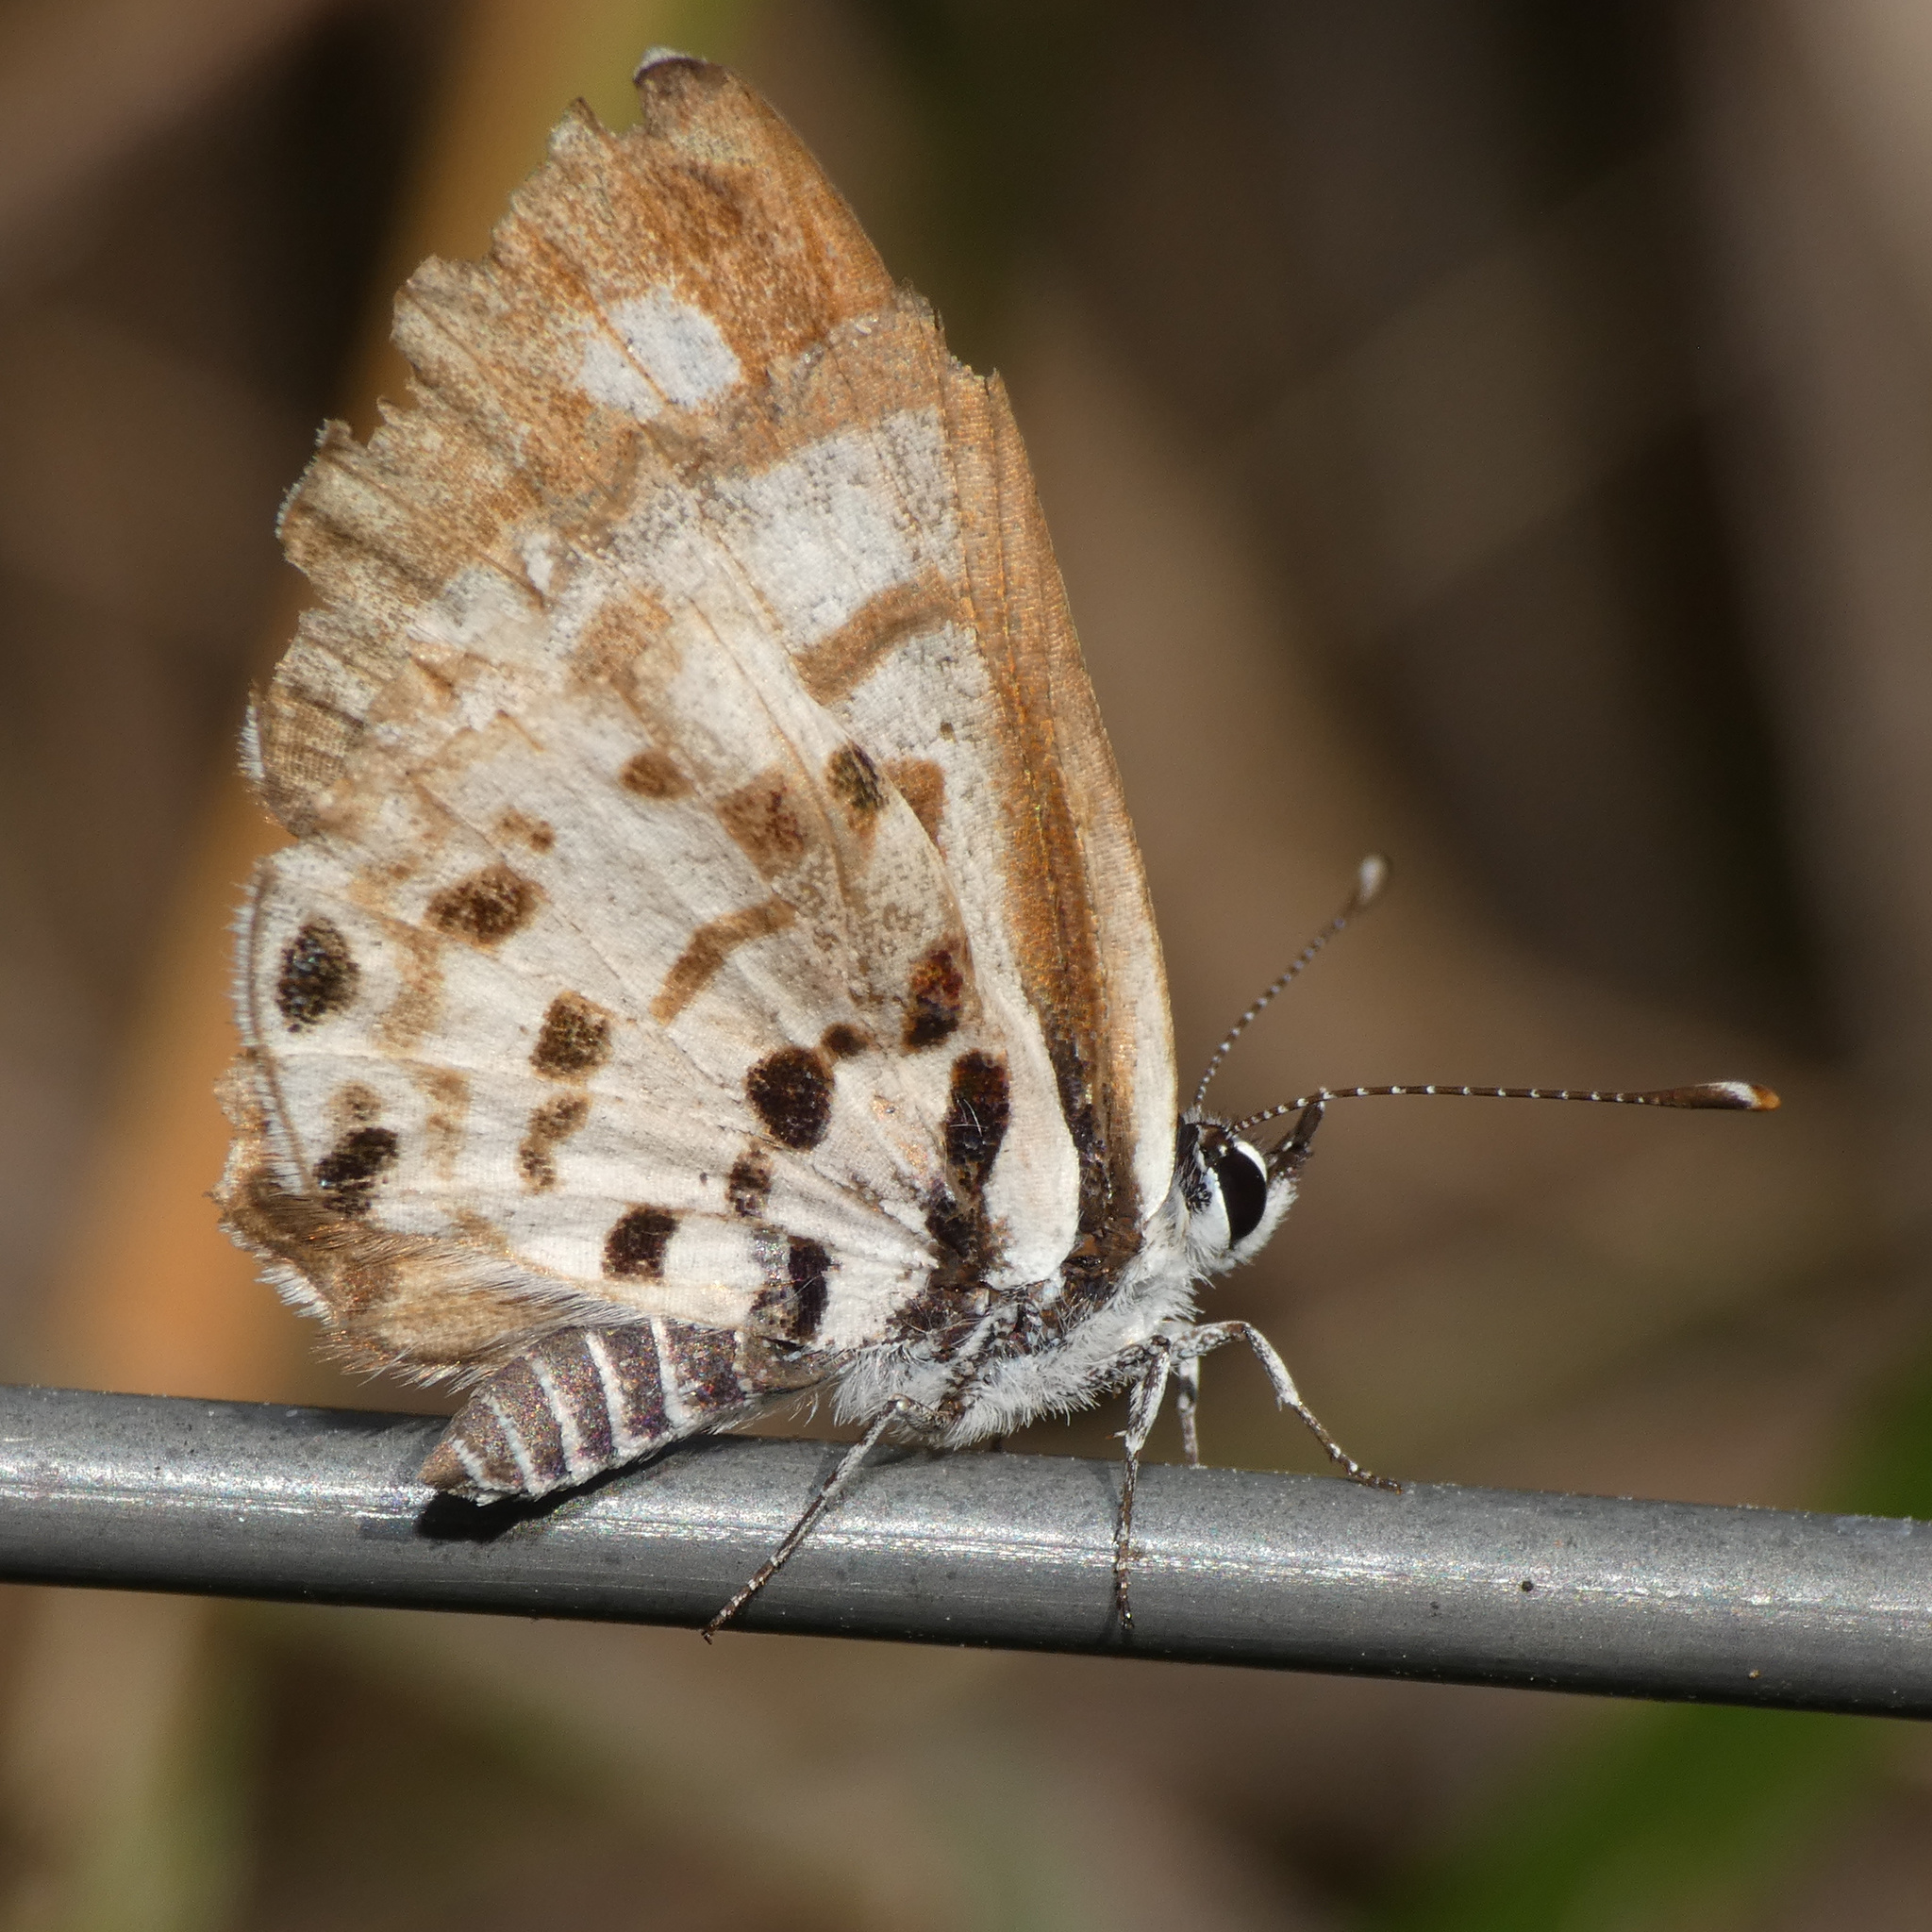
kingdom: Animalia
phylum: Arthropoda
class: Insecta
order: Lepidoptera
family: Lycaenidae
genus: Azanus
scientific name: Azanus natalensis
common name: Natal babul blue
